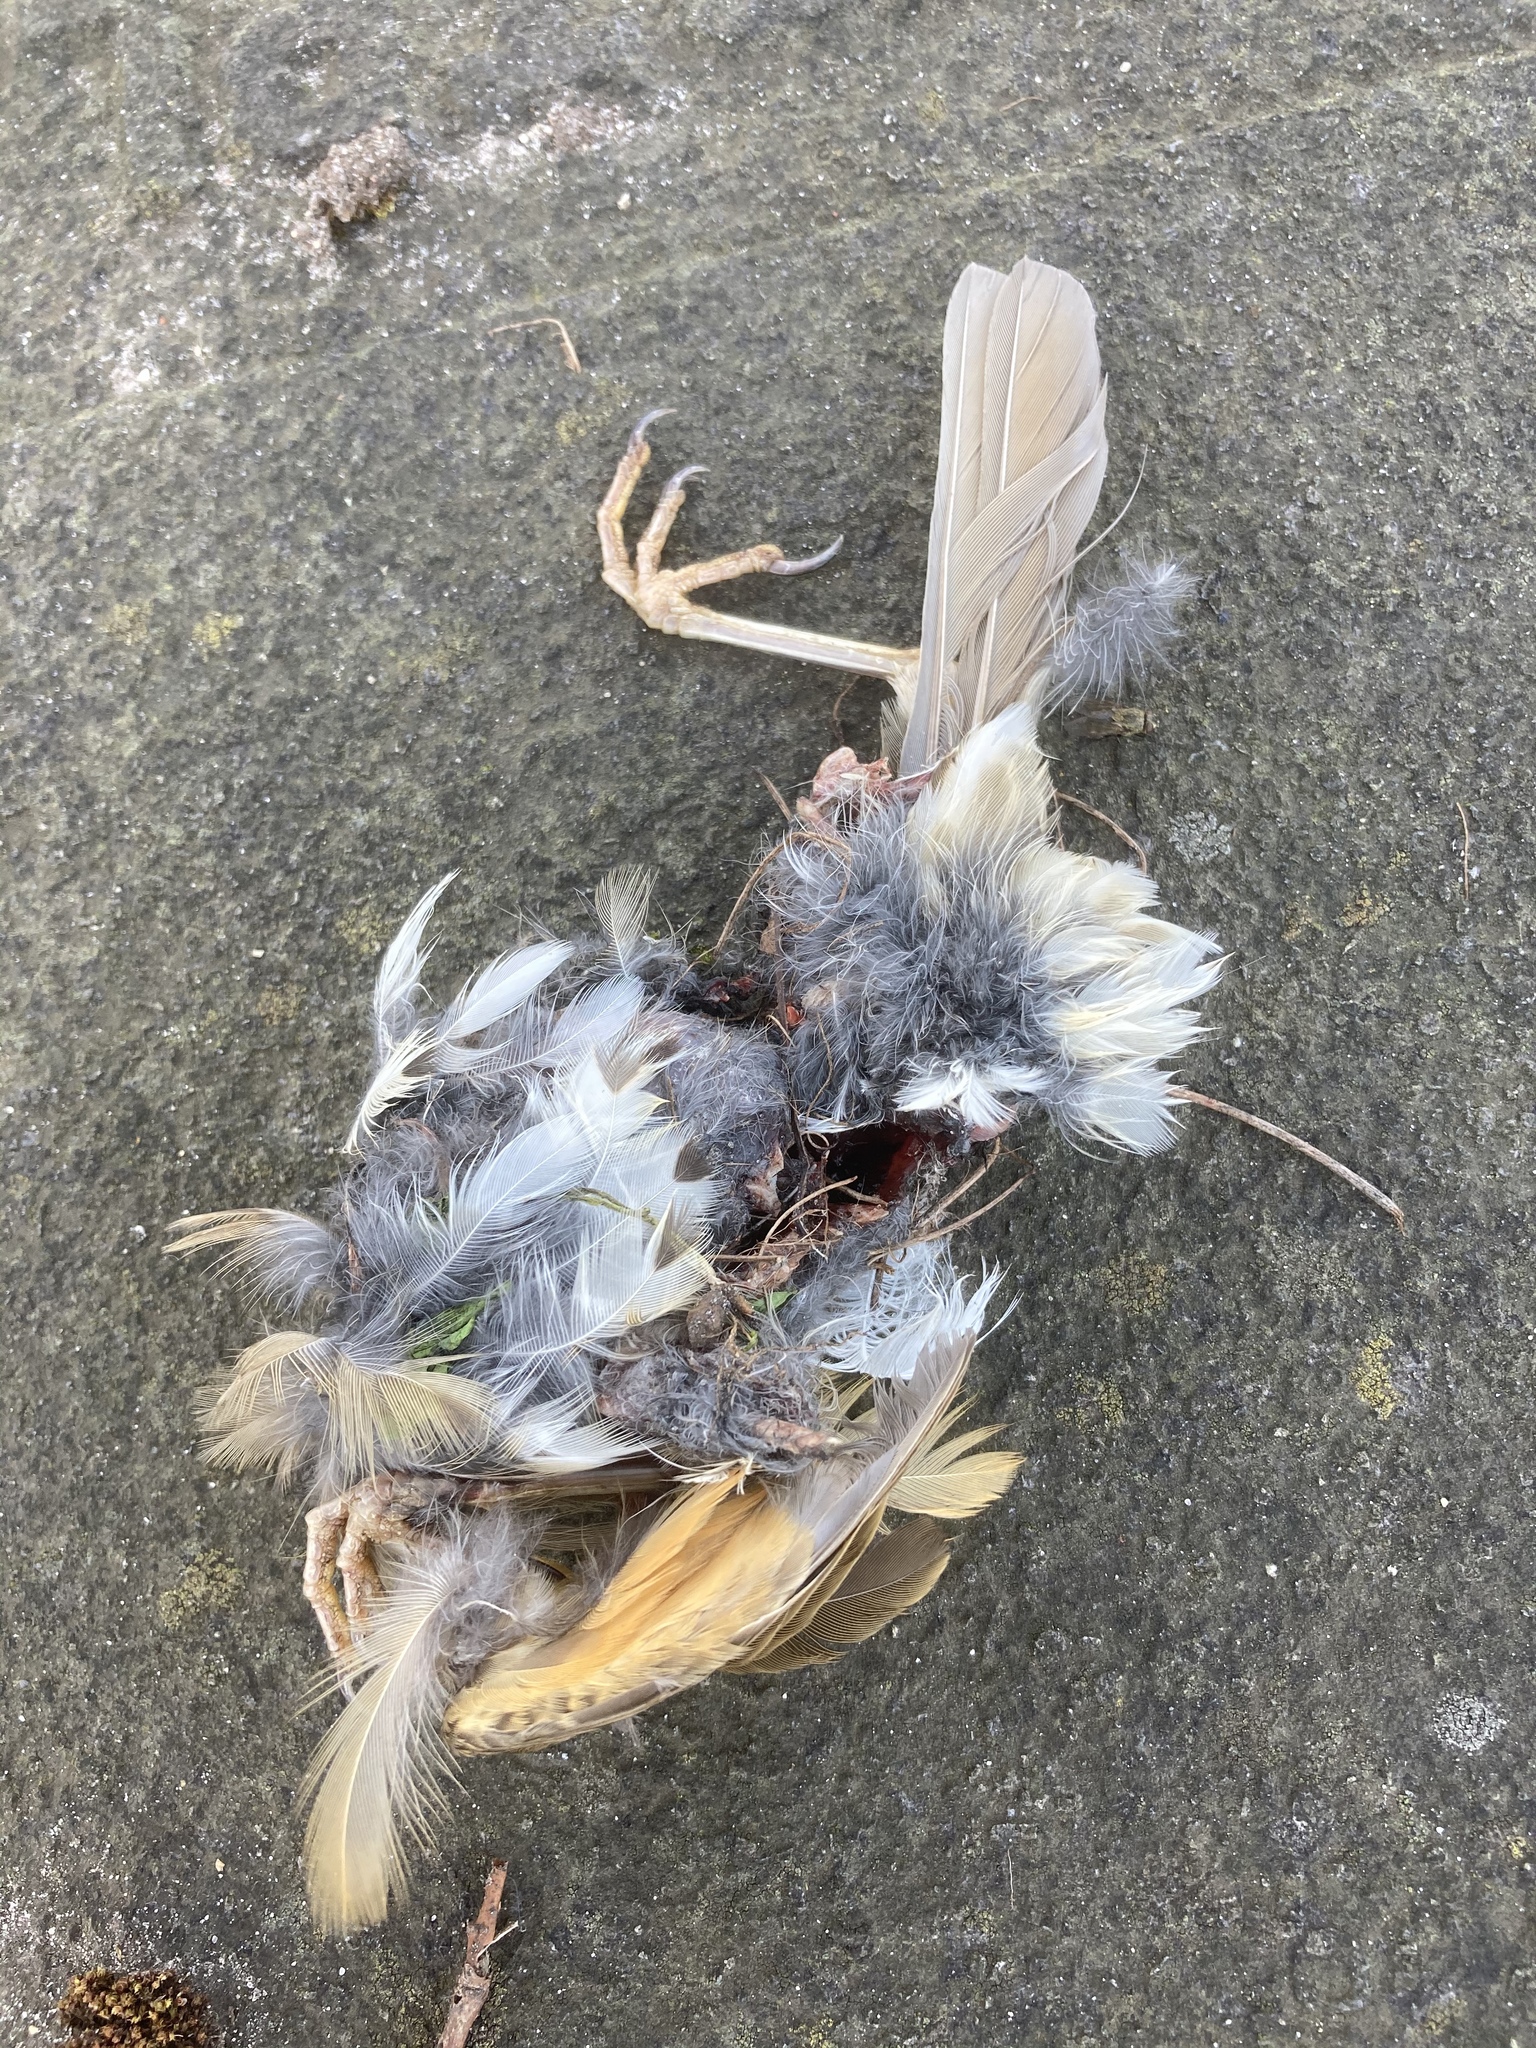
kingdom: Animalia
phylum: Chordata
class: Aves
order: Passeriformes
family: Turdidae
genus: Turdus
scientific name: Turdus philomelos
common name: Song thrush
